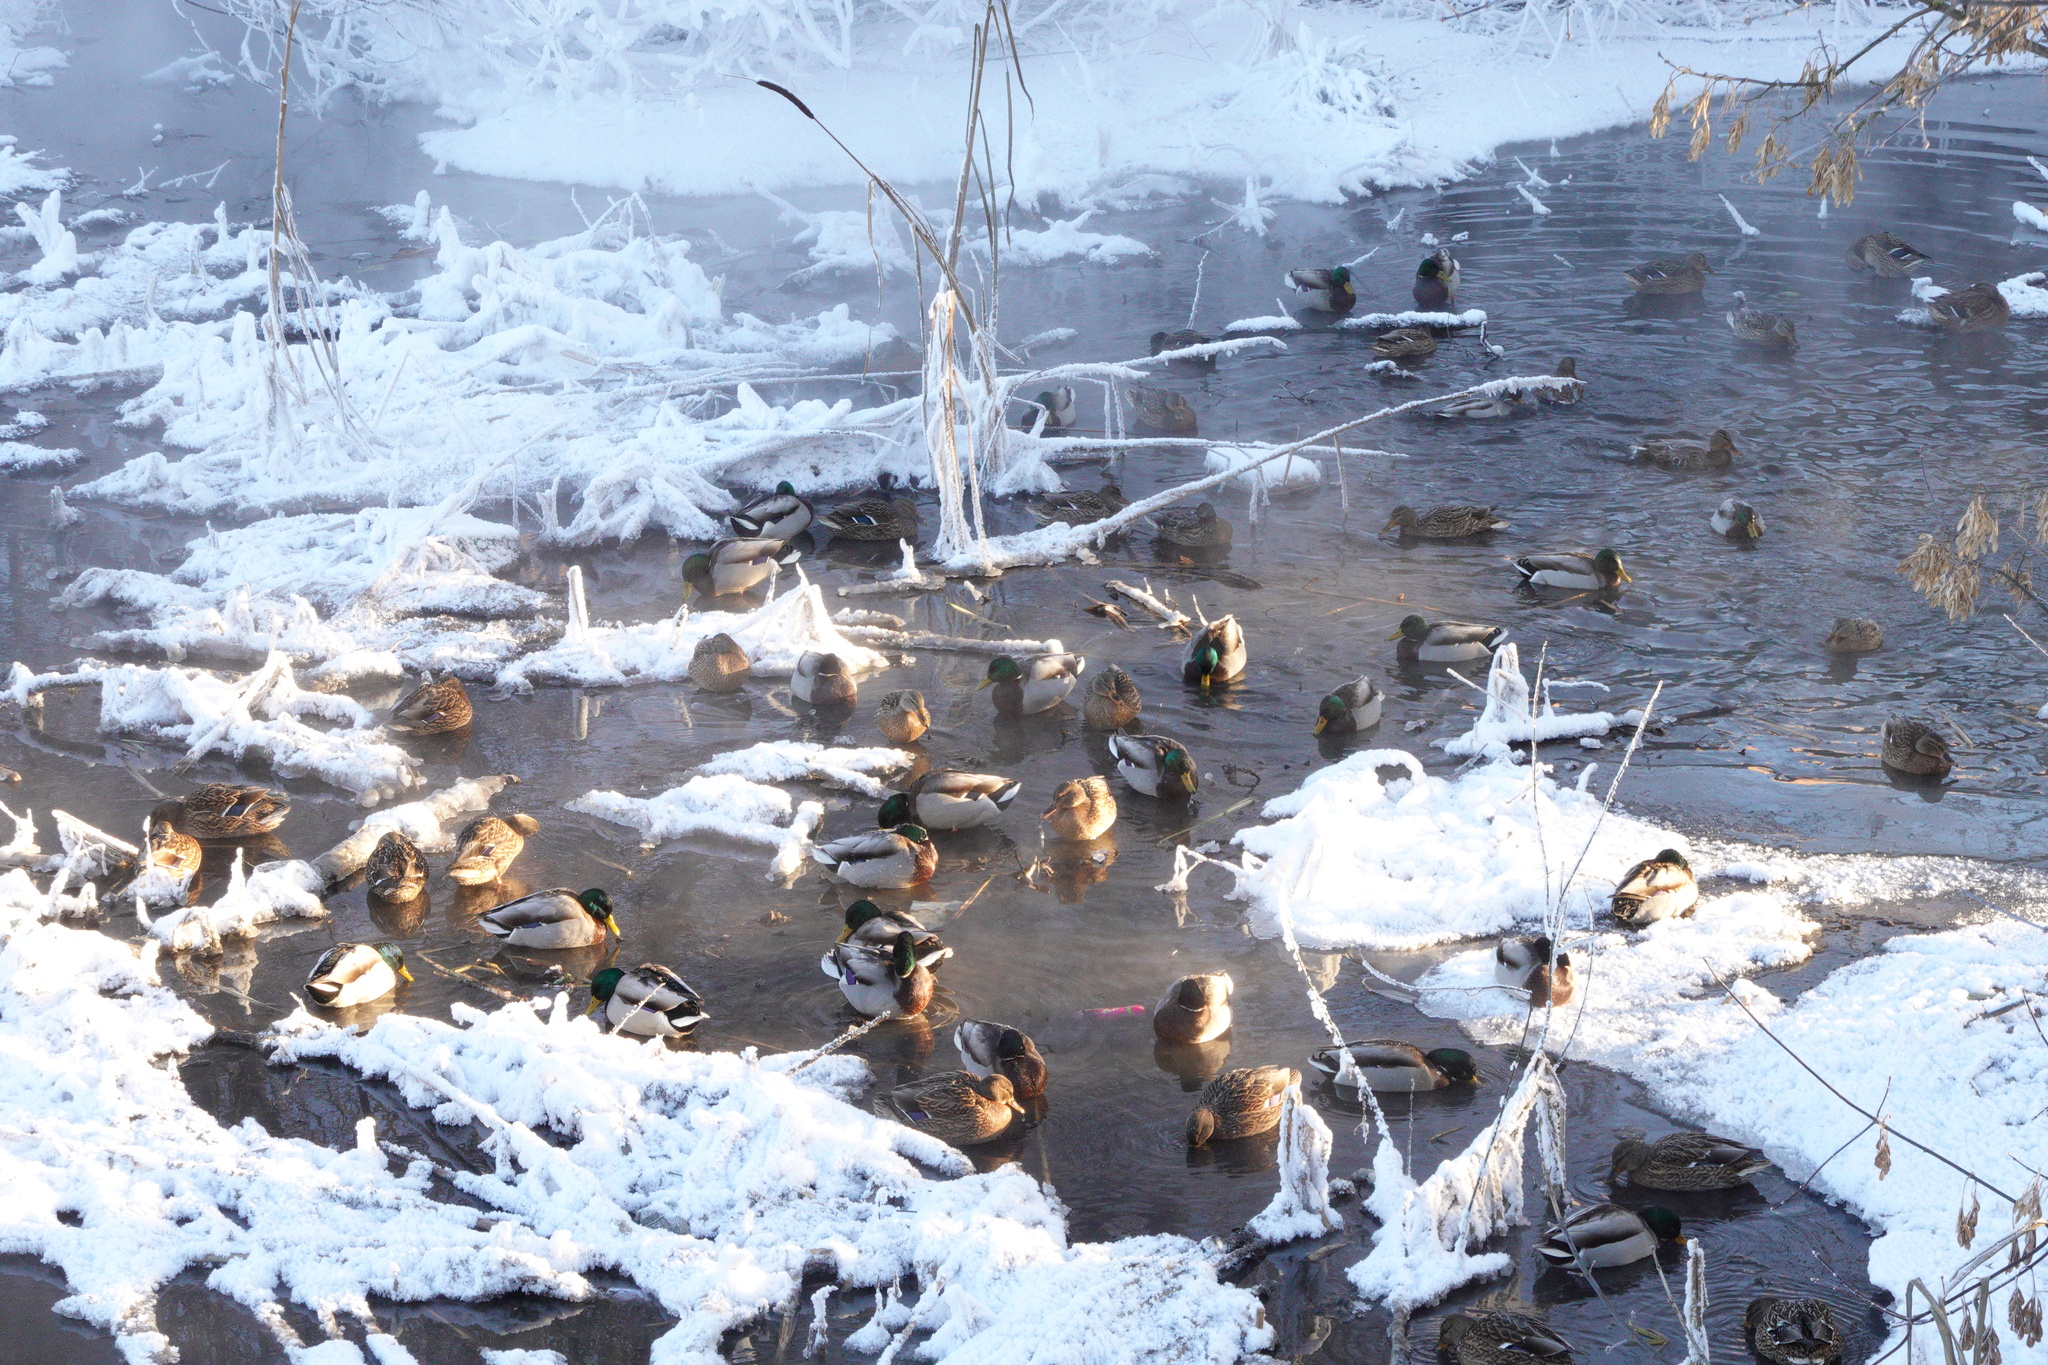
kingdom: Animalia
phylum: Chordata
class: Aves
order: Anseriformes
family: Anatidae
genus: Anas
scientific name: Anas platyrhynchos
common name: Mallard
